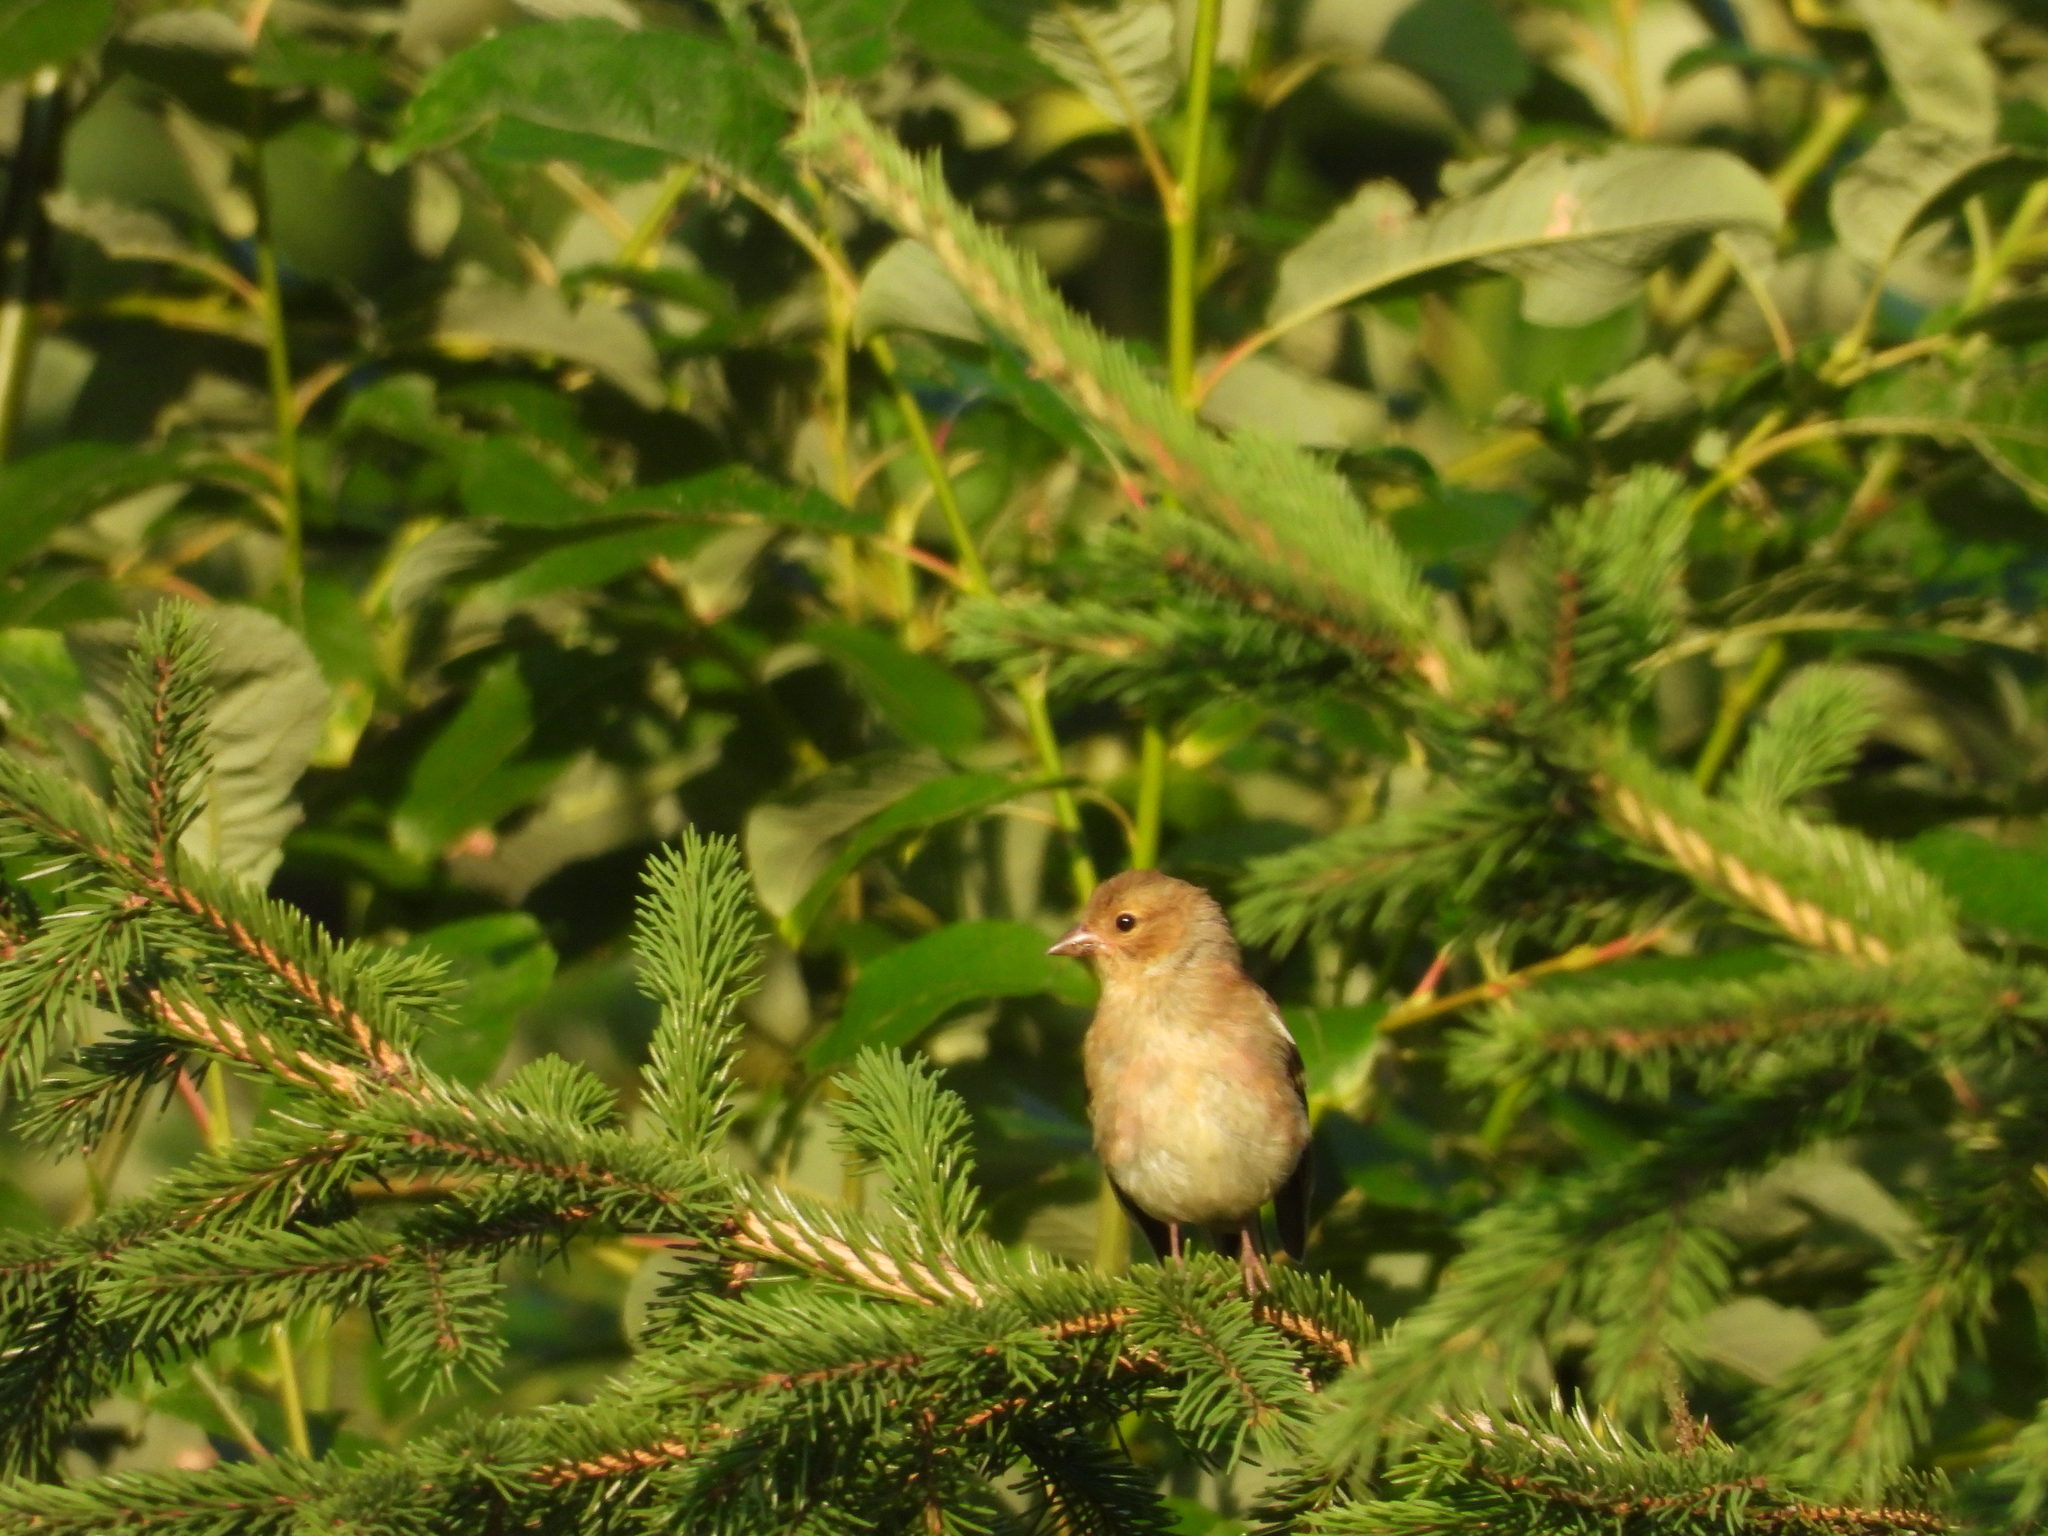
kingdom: Animalia
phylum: Chordata
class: Aves
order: Passeriformes
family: Fringillidae
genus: Fringilla
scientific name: Fringilla coelebs
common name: Common chaffinch
